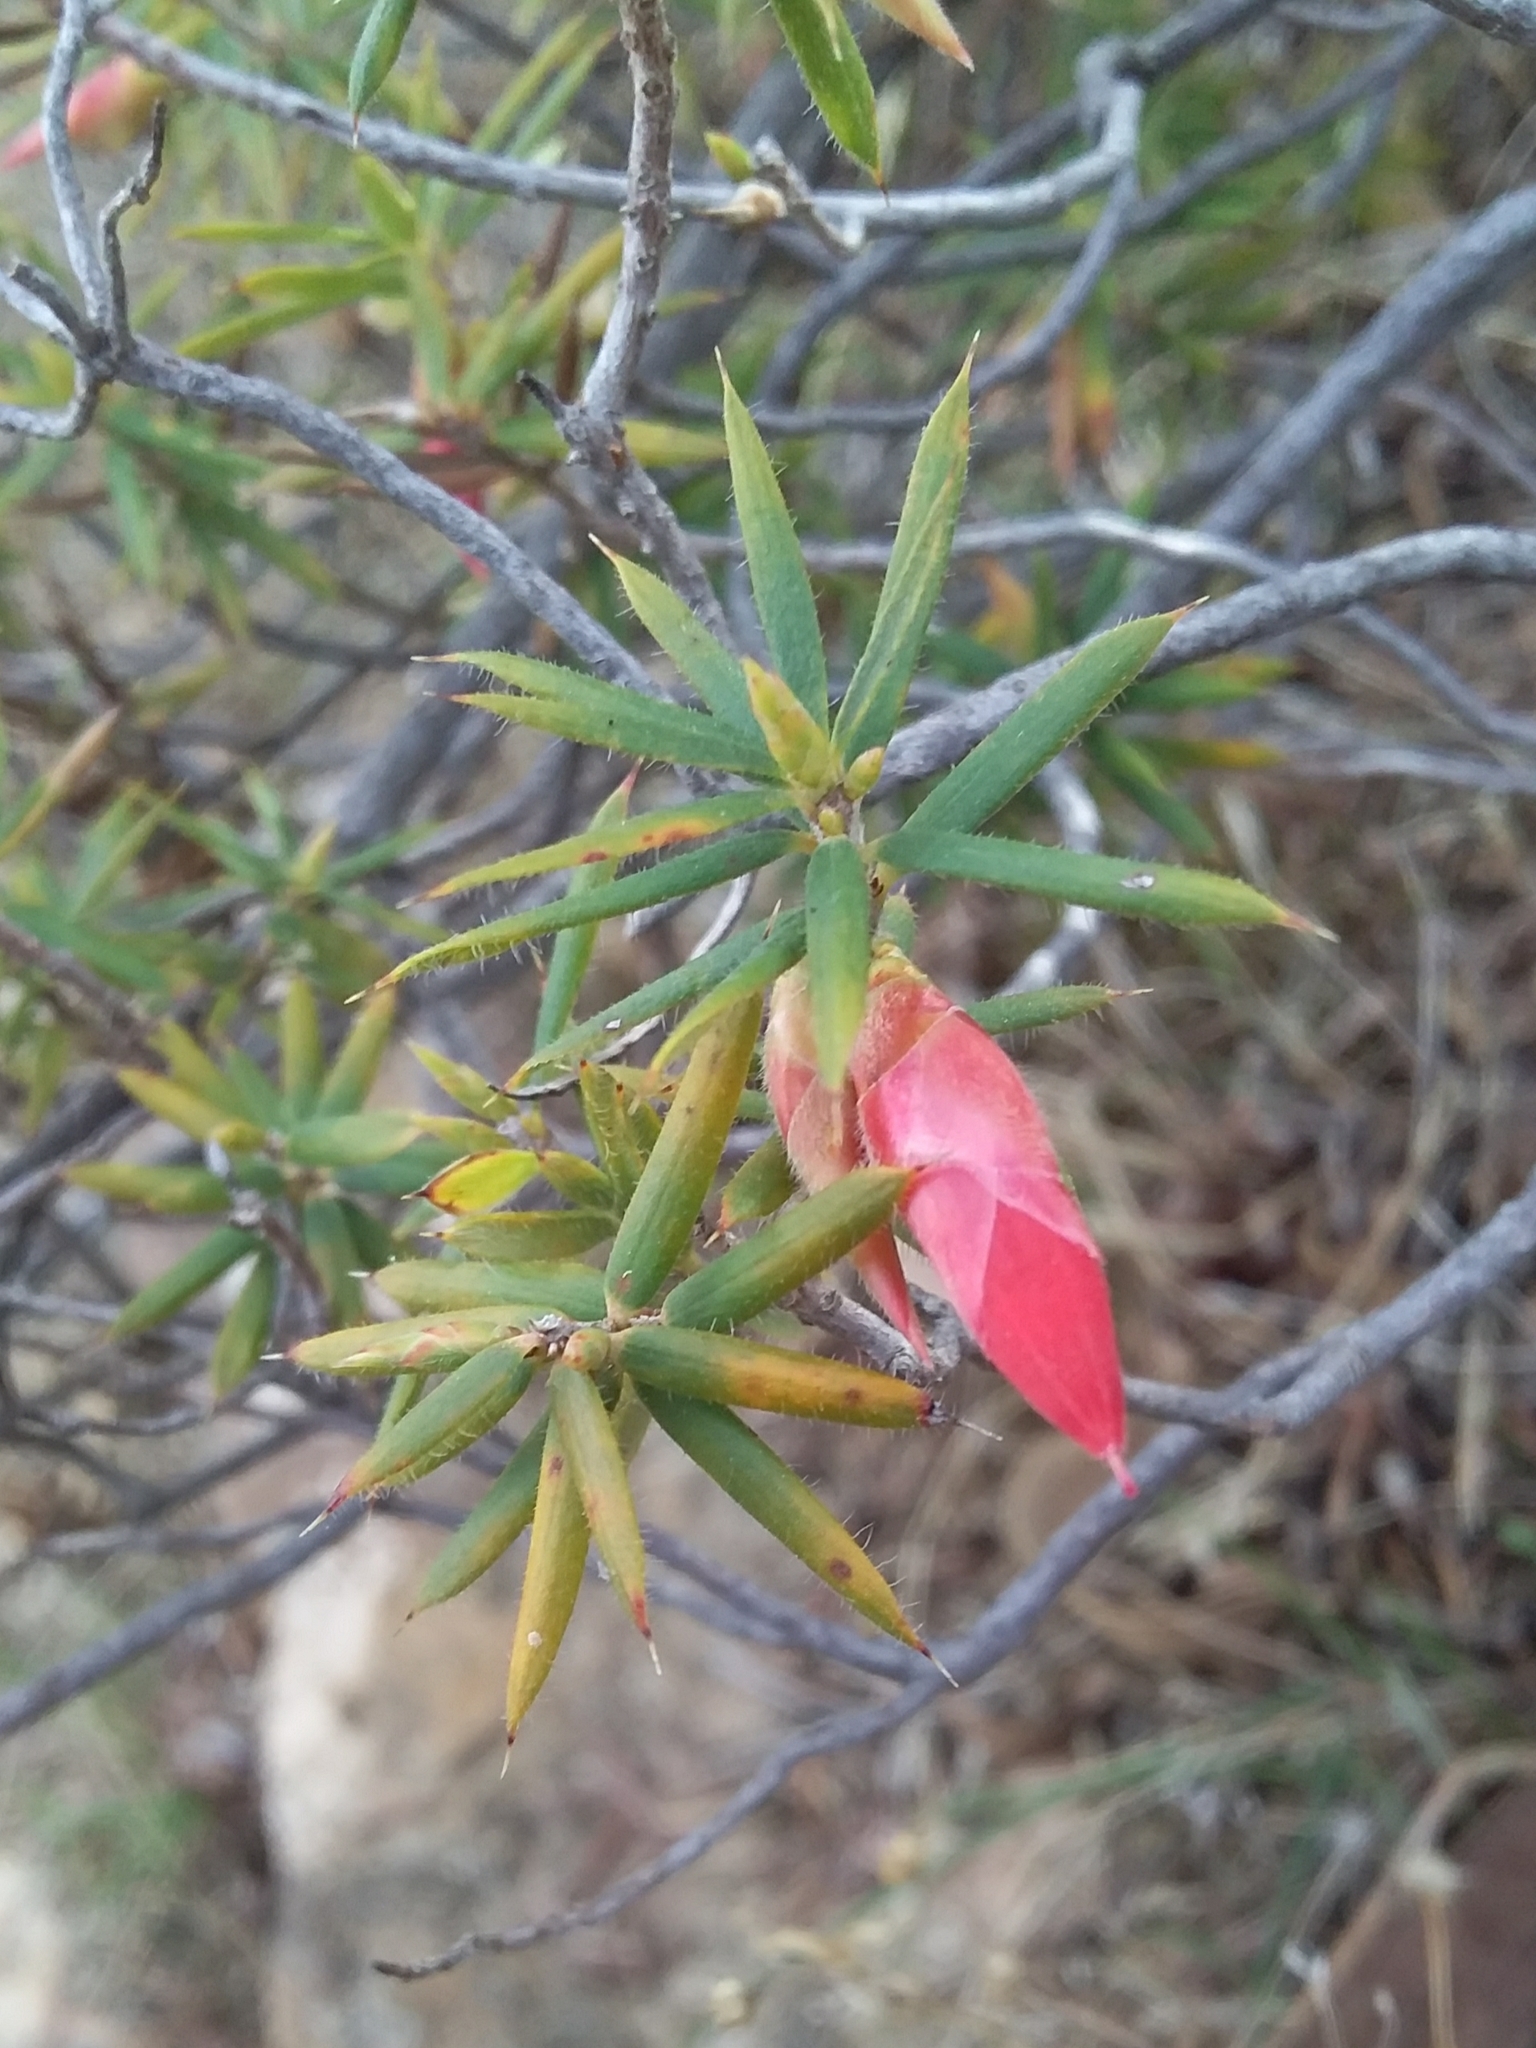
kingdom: Plantae
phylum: Tracheophyta
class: Magnoliopsida
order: Ericales
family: Ericaceae
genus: Stenanthera
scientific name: Stenanthera conostephioides
